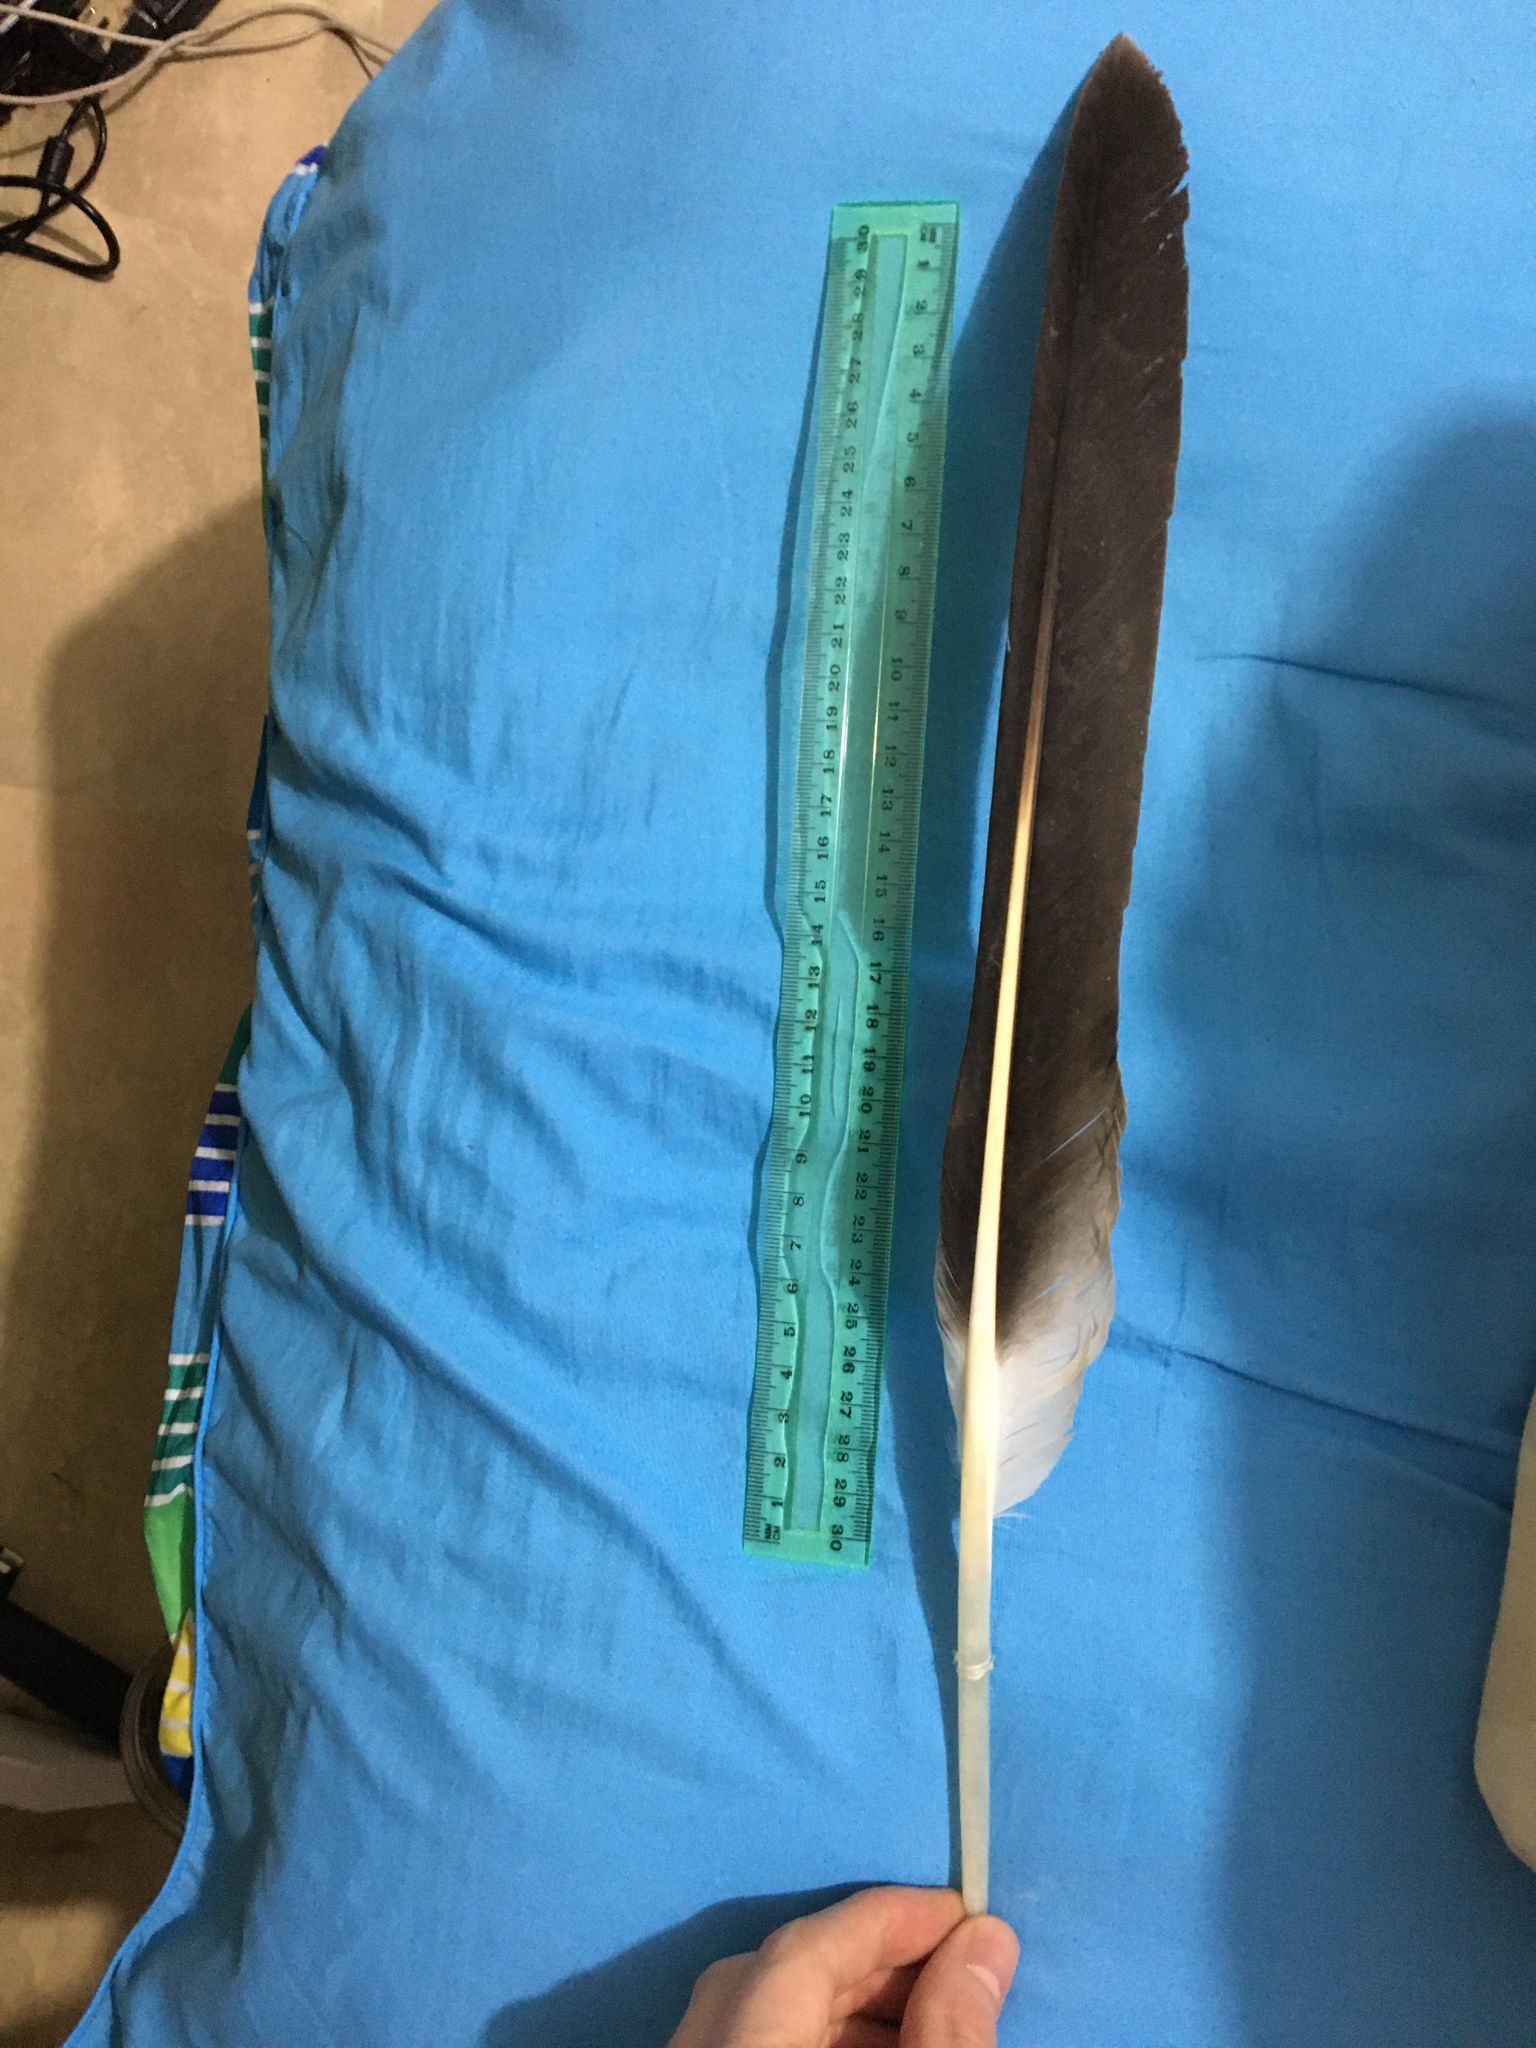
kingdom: Animalia
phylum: Chordata
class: Aves
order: Pelecaniformes
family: Pelecanidae
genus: Pelecanus
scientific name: Pelecanus conspicillatus
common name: Australian pelican
